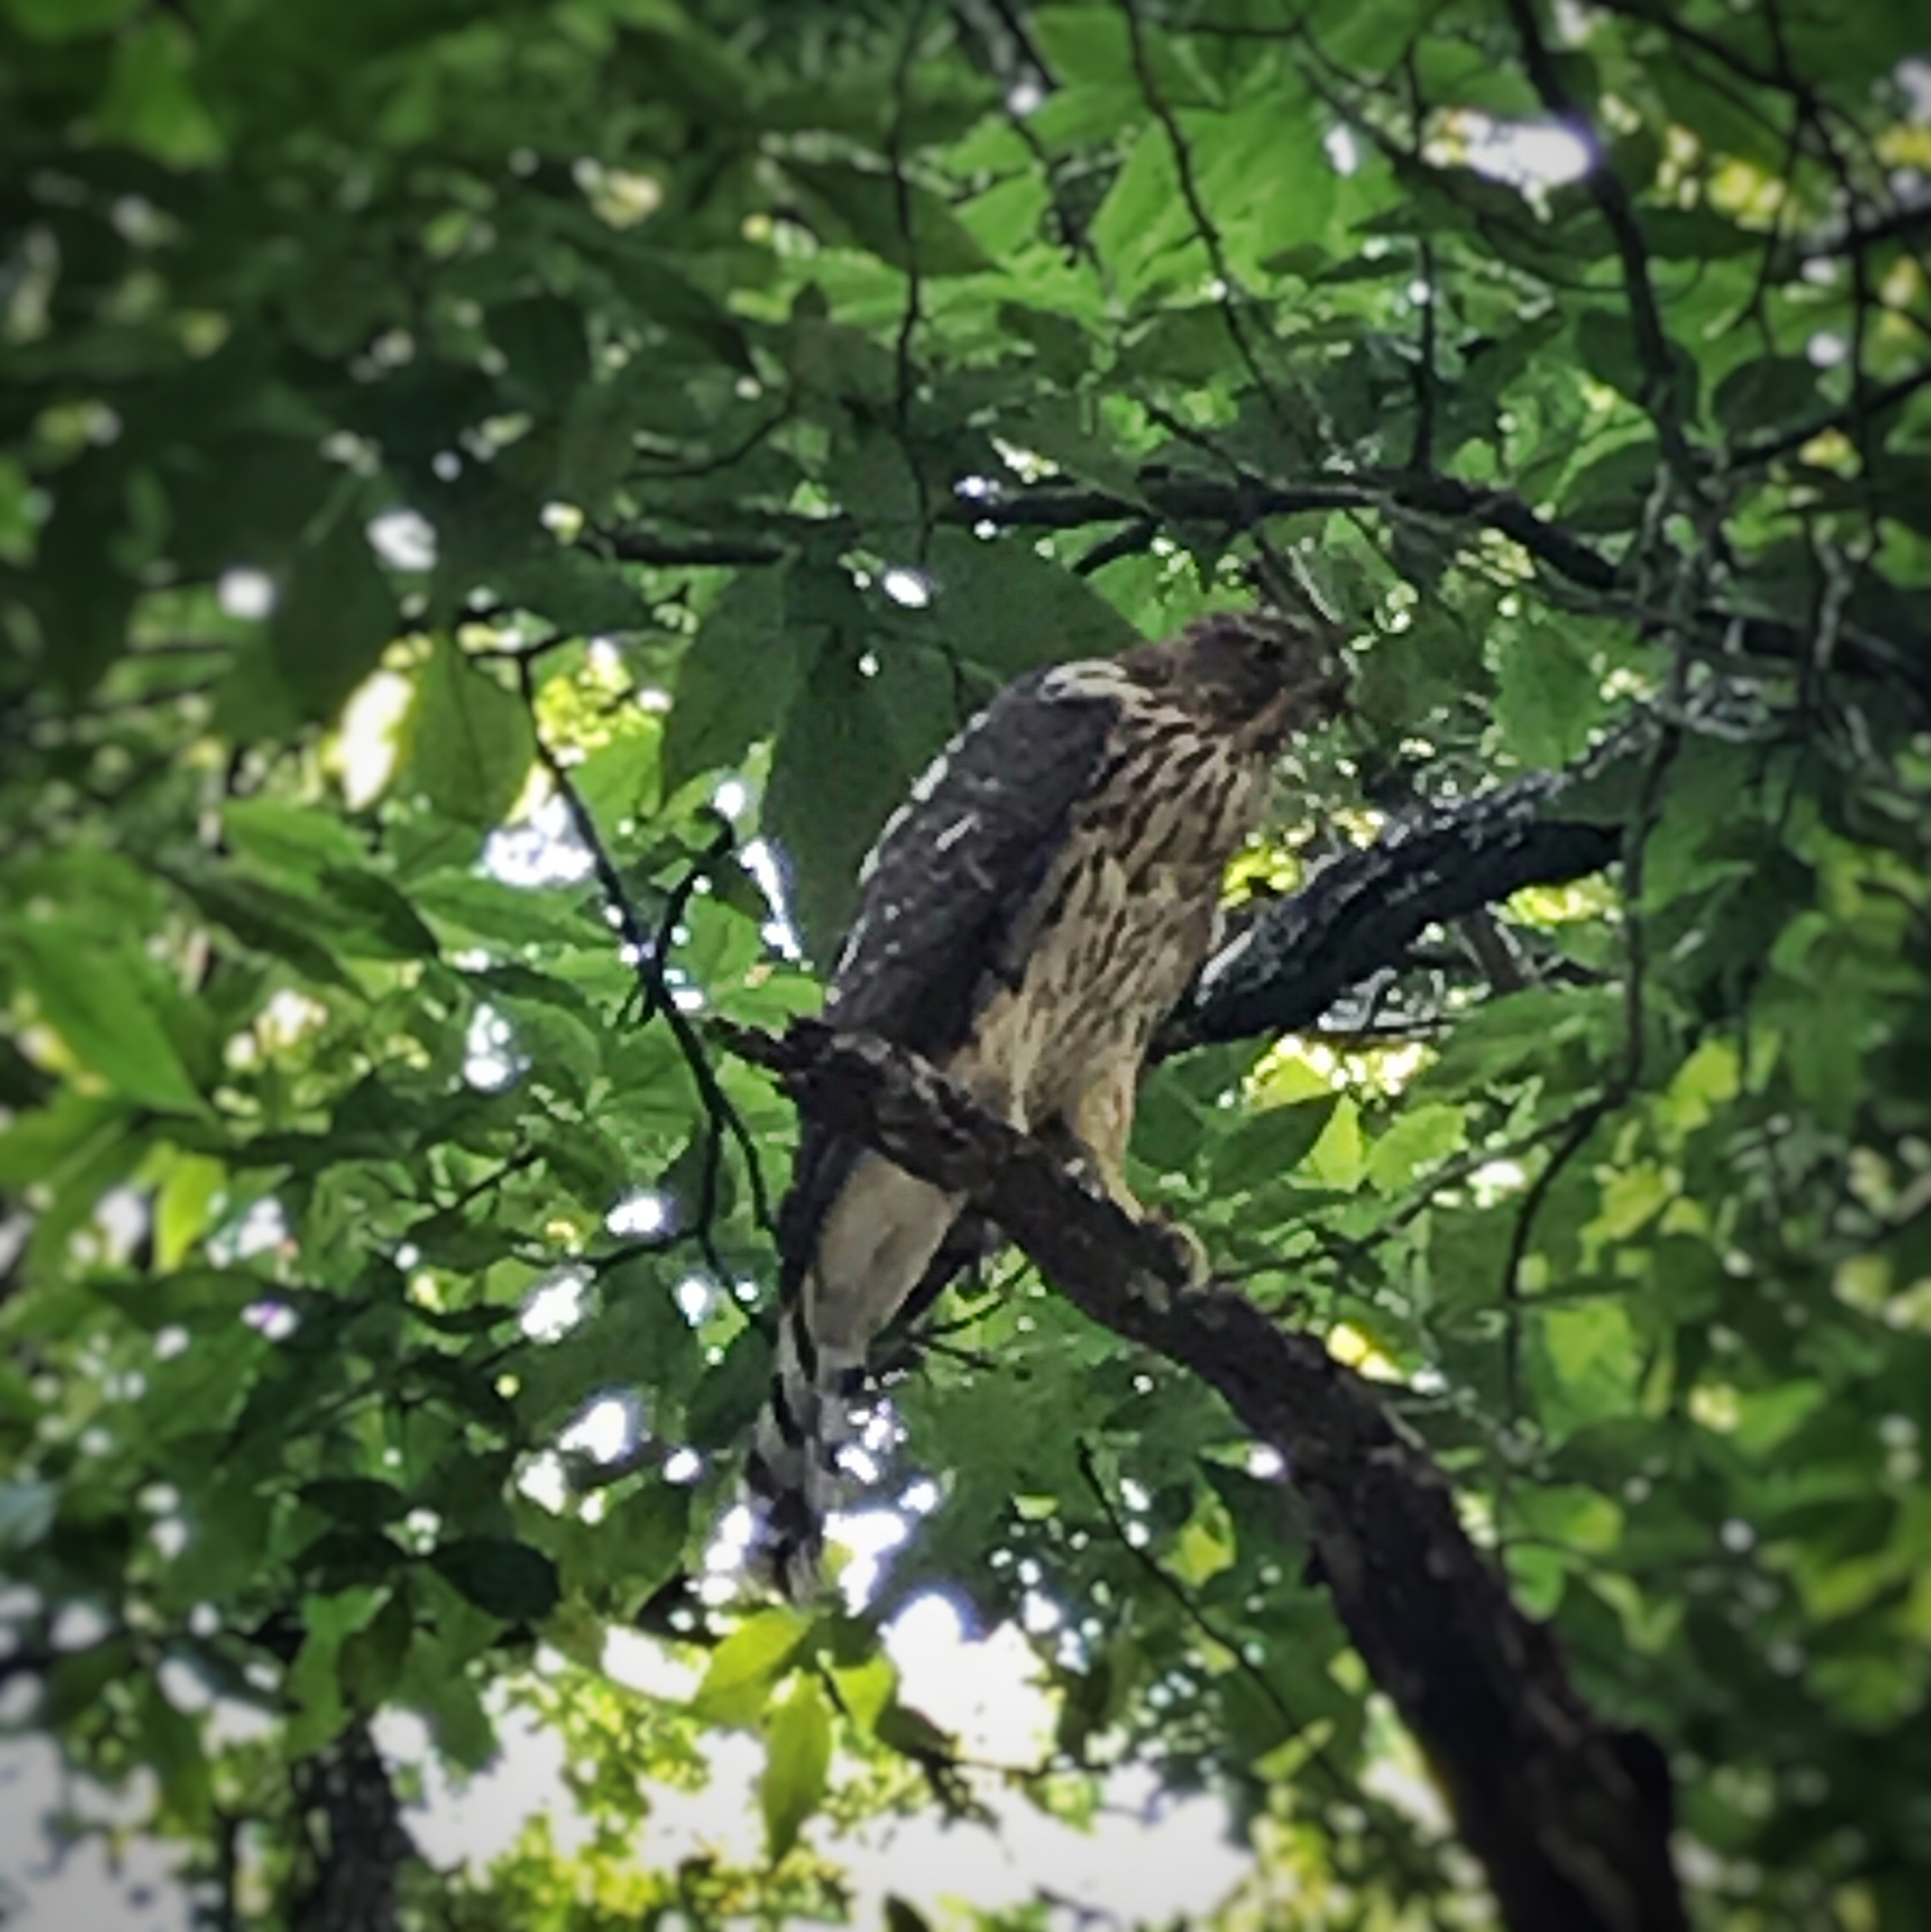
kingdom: Animalia
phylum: Chordata
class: Aves
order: Accipitriformes
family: Accipitridae
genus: Accipiter
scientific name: Accipiter cooperii
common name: Cooper's hawk
